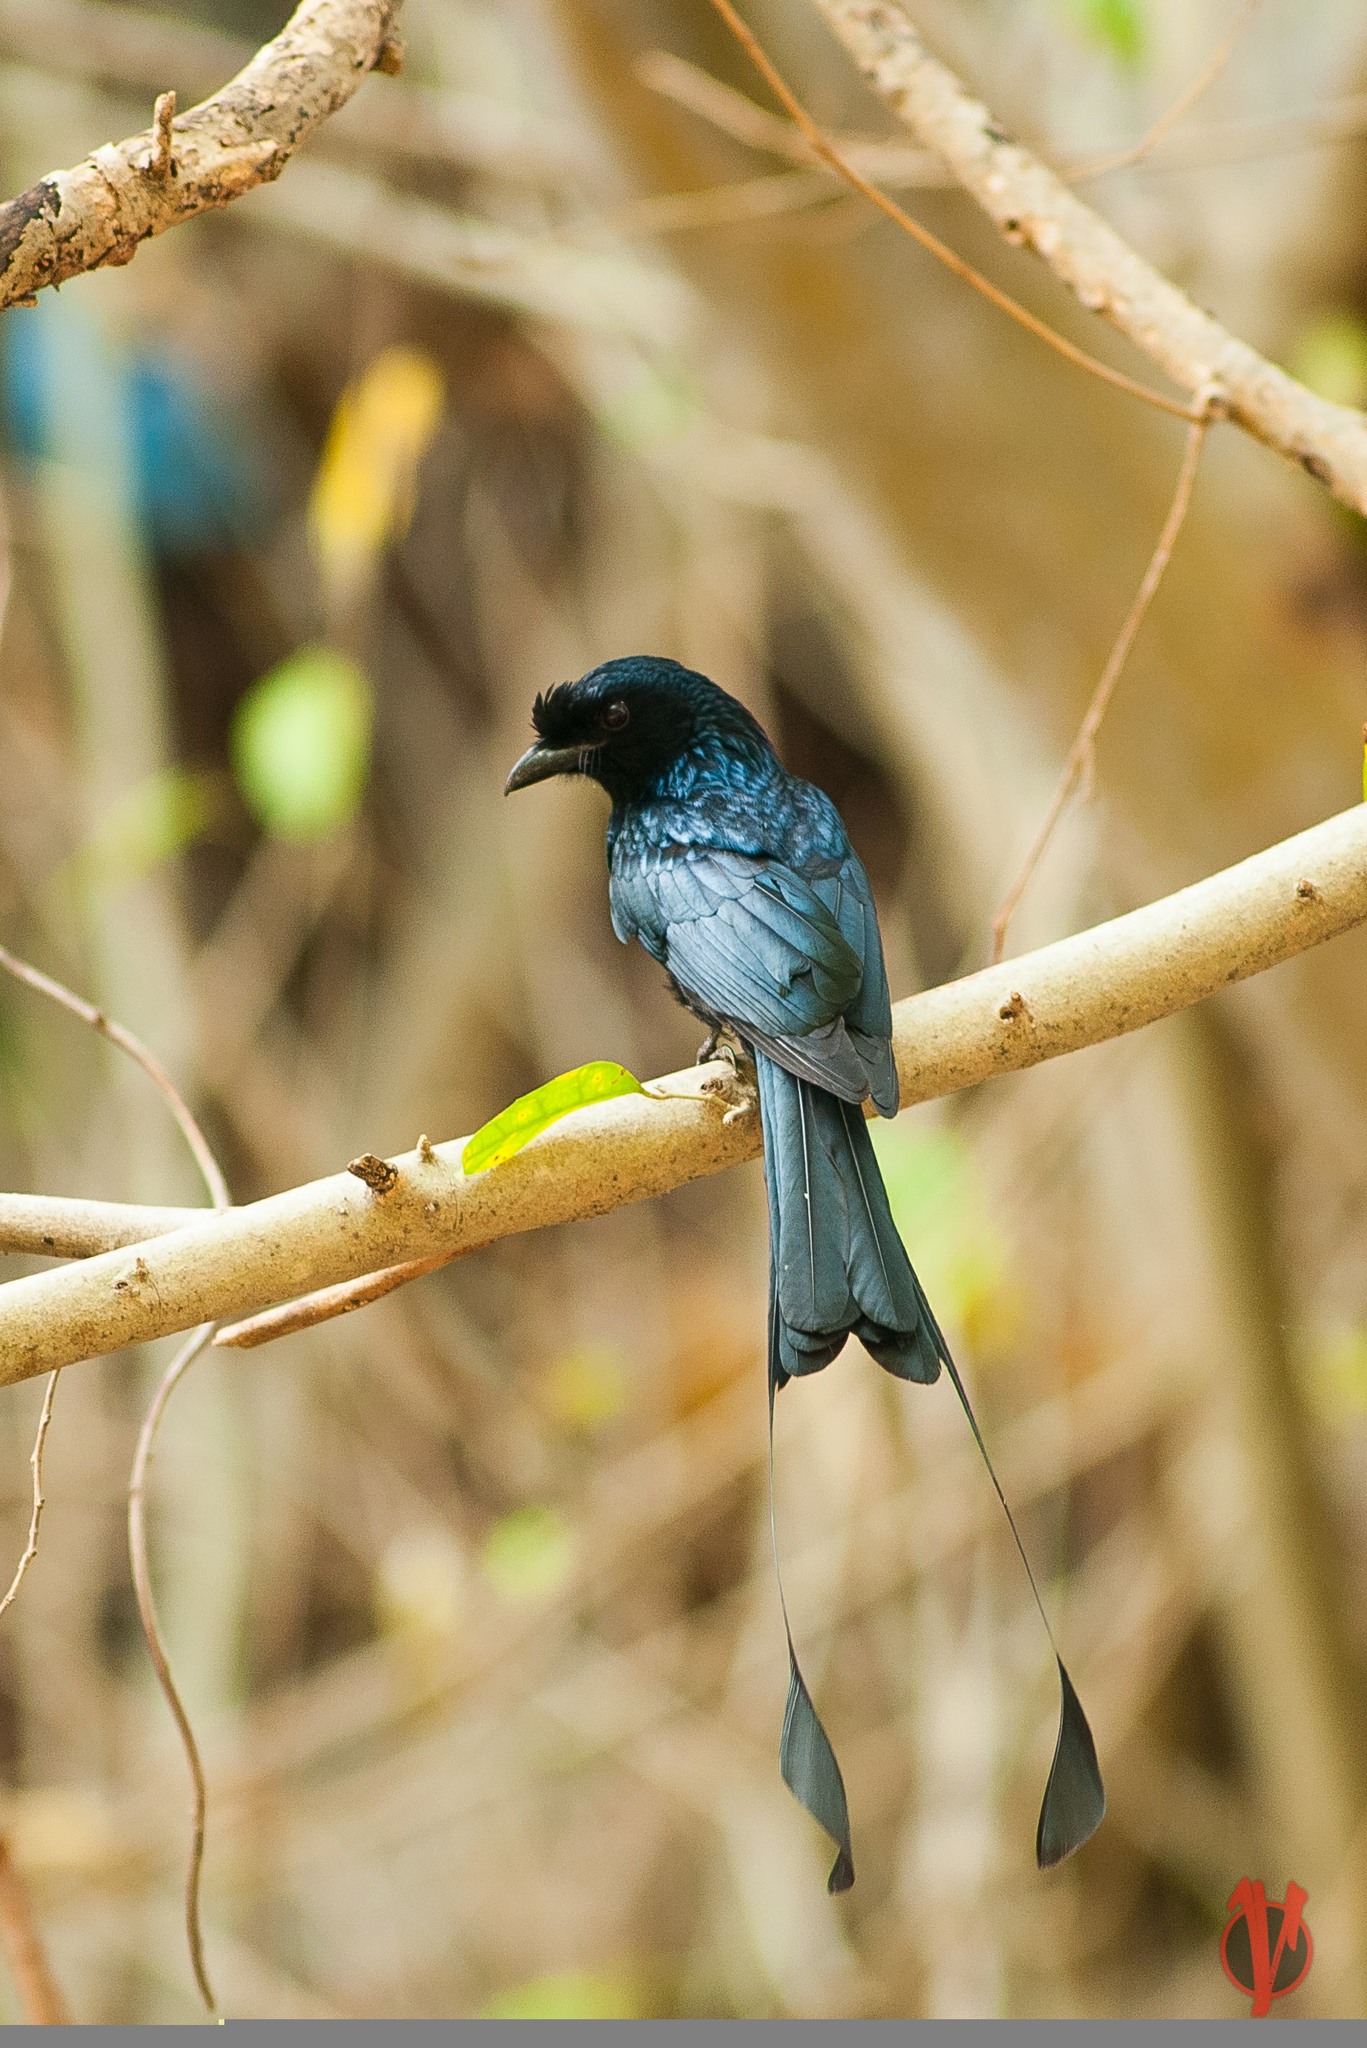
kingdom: Animalia
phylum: Chordata
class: Aves
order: Passeriformes
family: Dicruridae
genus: Dicrurus
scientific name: Dicrurus paradiseus
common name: Greater racket-tailed drongo
